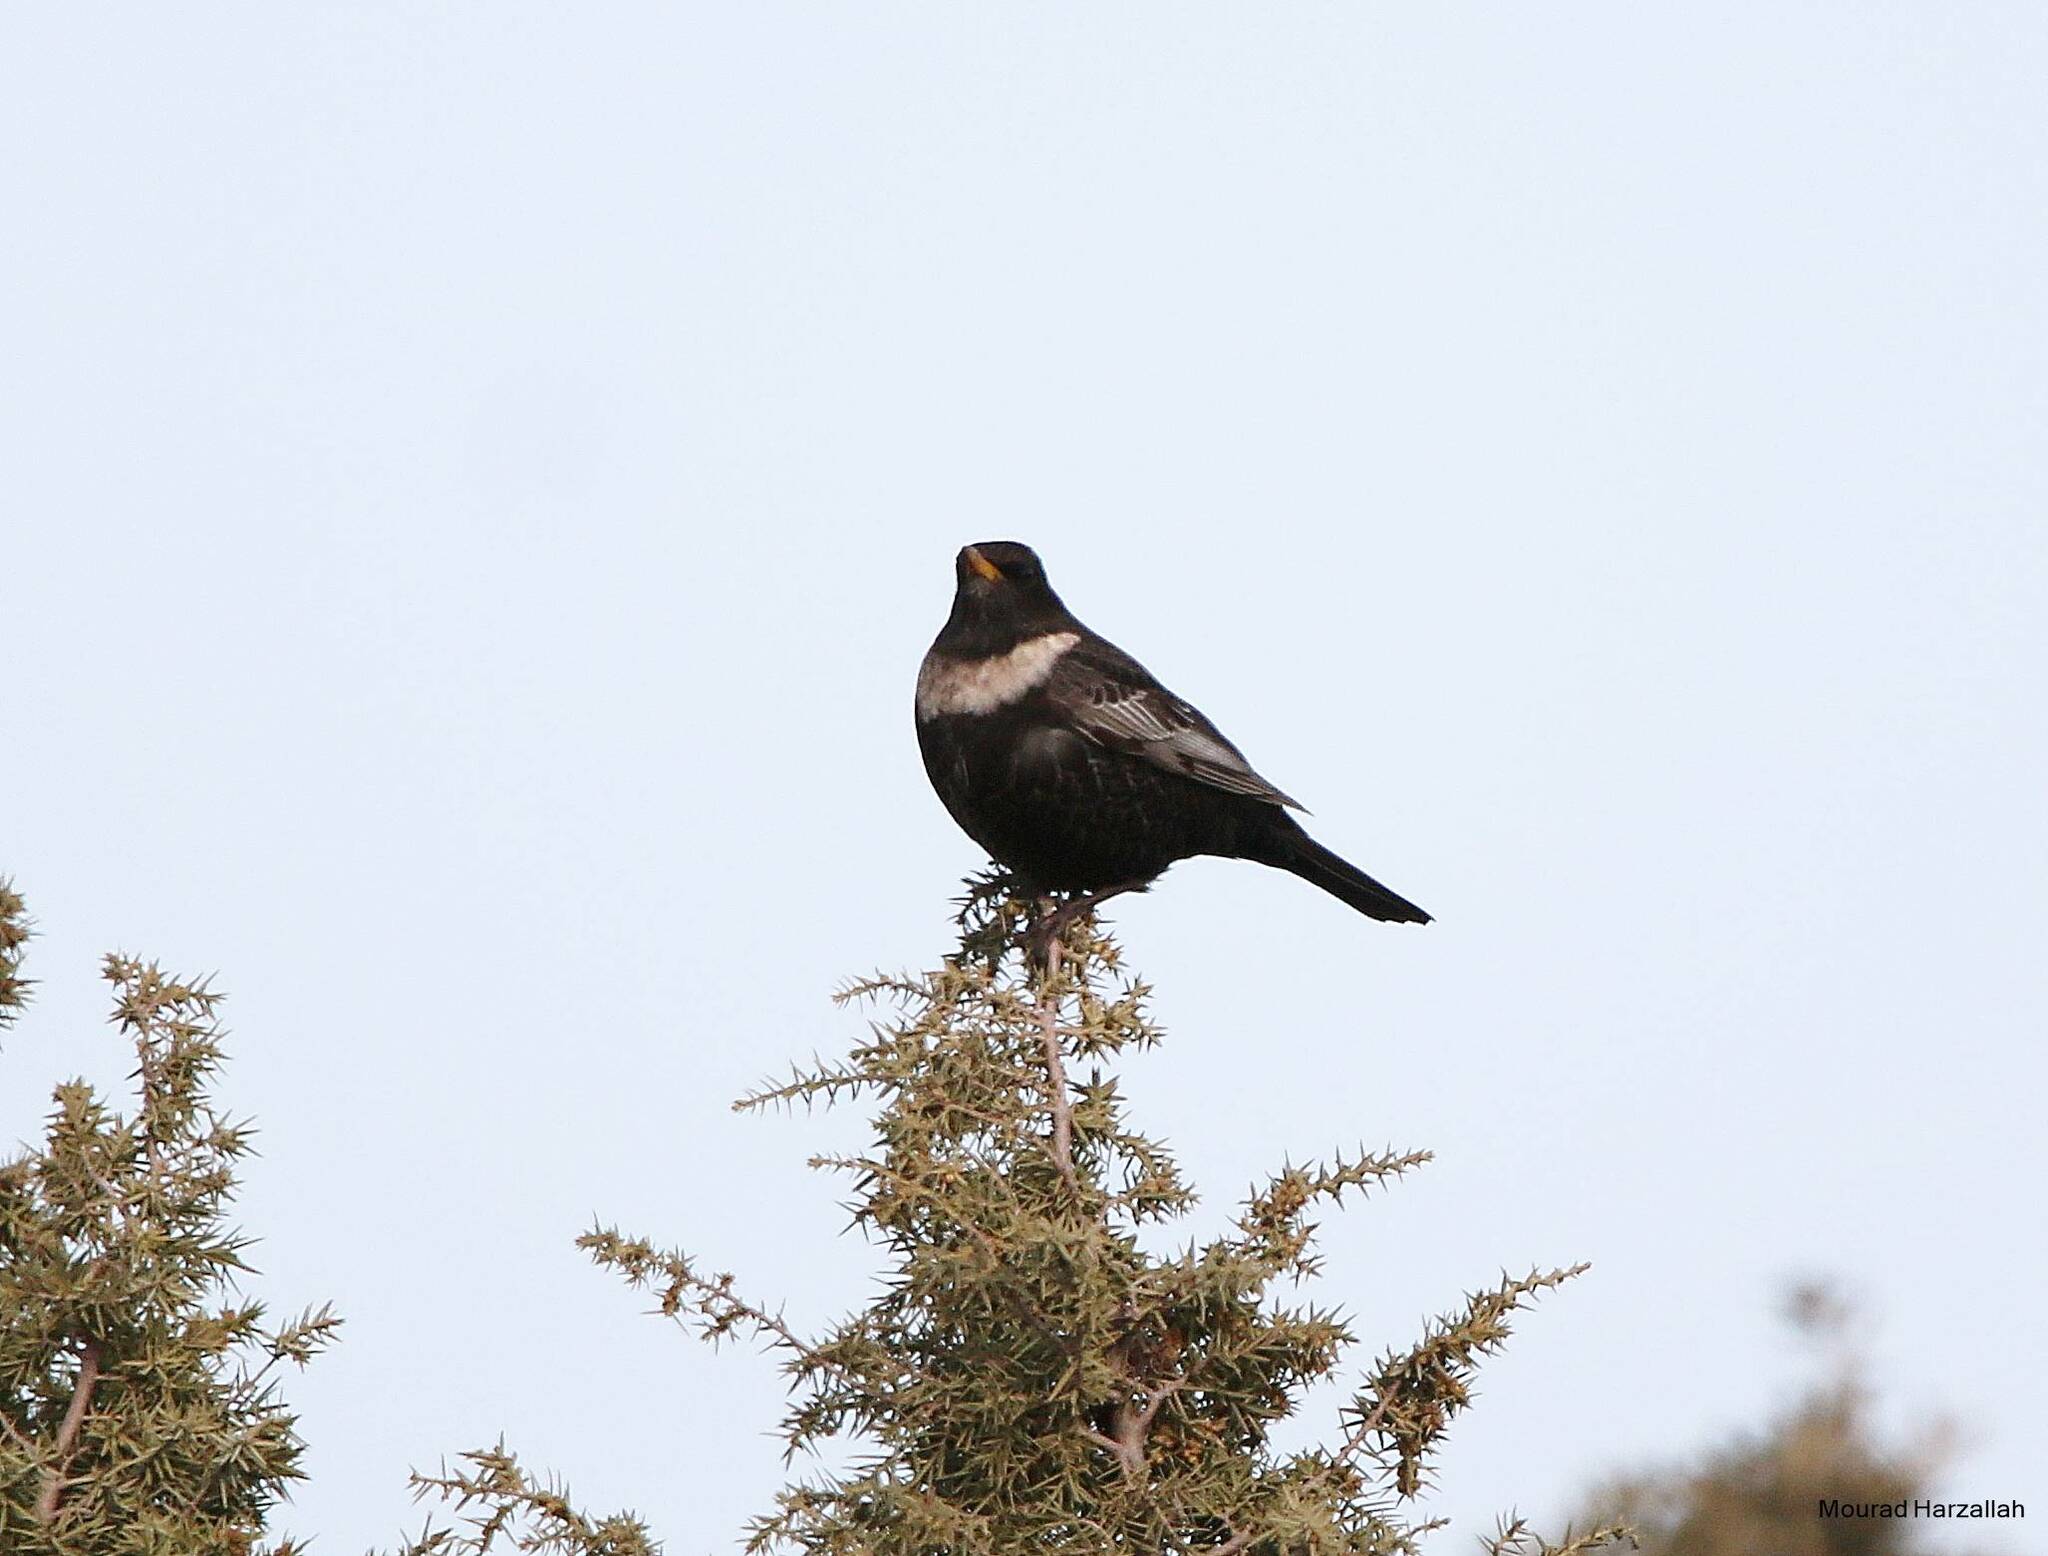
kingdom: Animalia
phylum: Chordata
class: Aves
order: Passeriformes
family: Turdidae
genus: Turdus
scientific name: Turdus torquatus
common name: Ring ouzel
